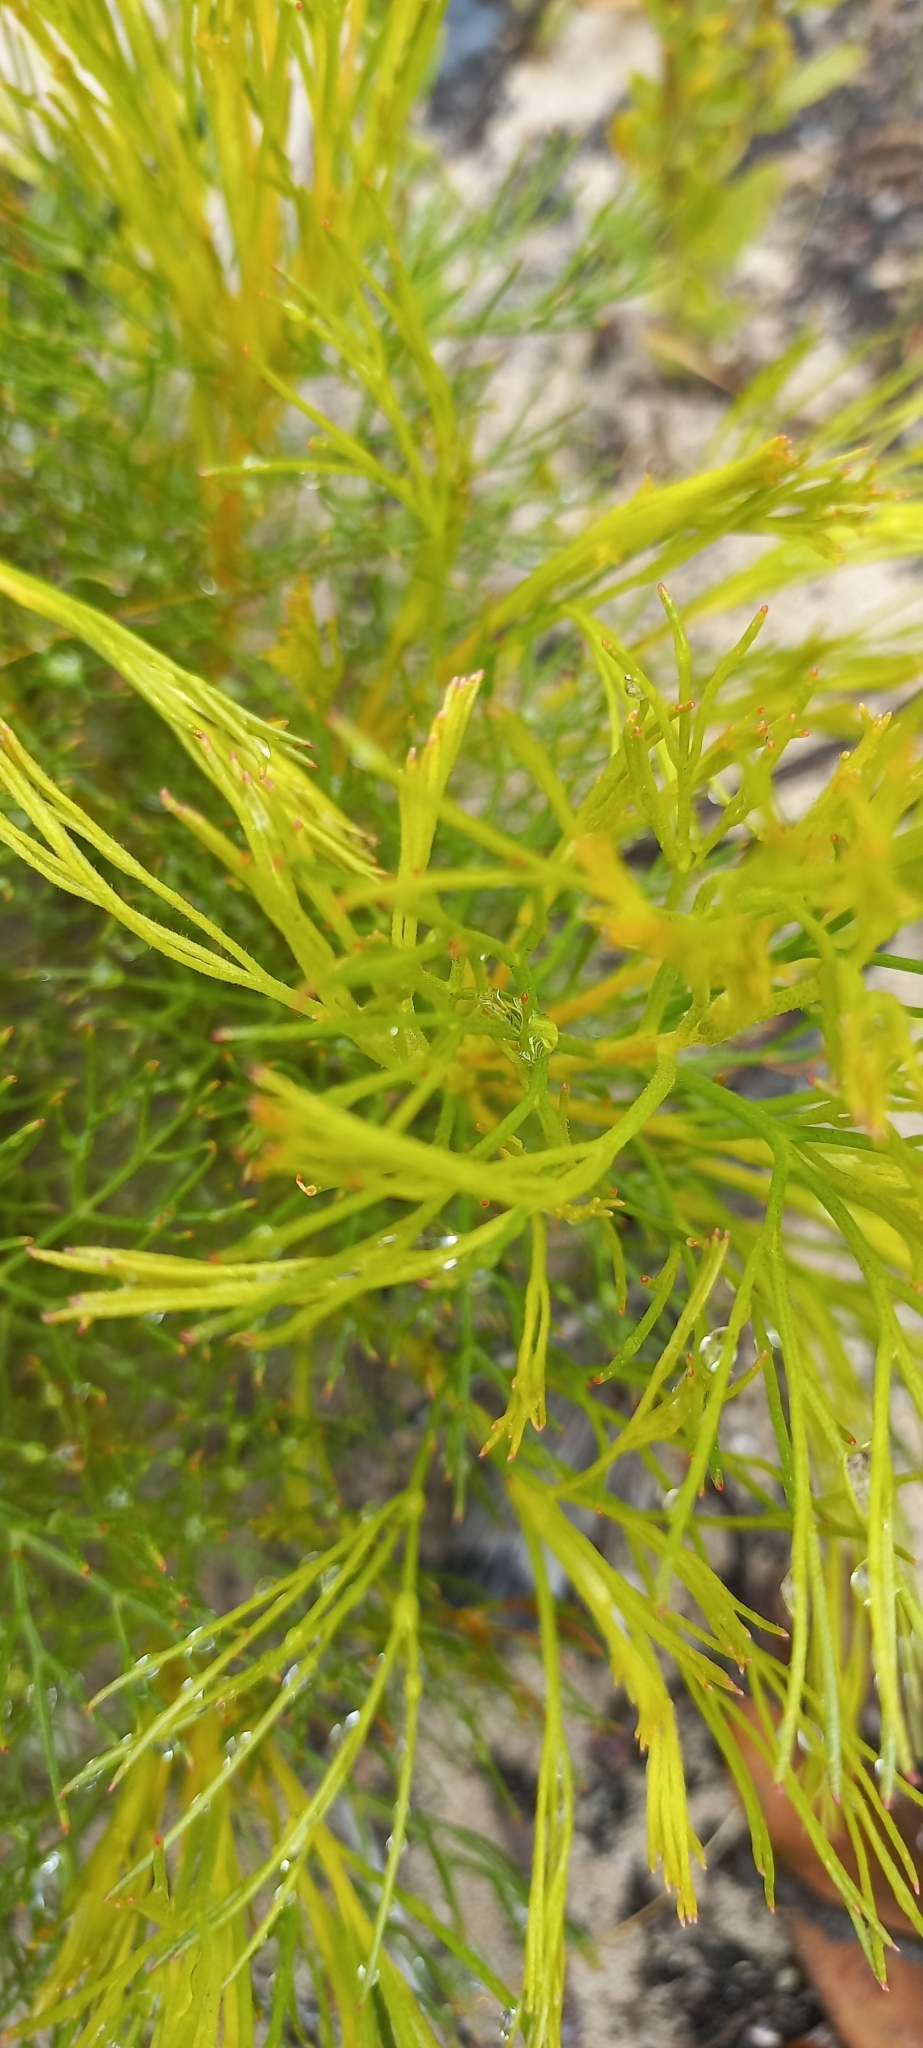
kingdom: Plantae
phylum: Tracheophyta
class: Magnoliopsida
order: Proteales
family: Proteaceae
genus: Serruria
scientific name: Serruria rubricaulis
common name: Red-stem spiderhead
